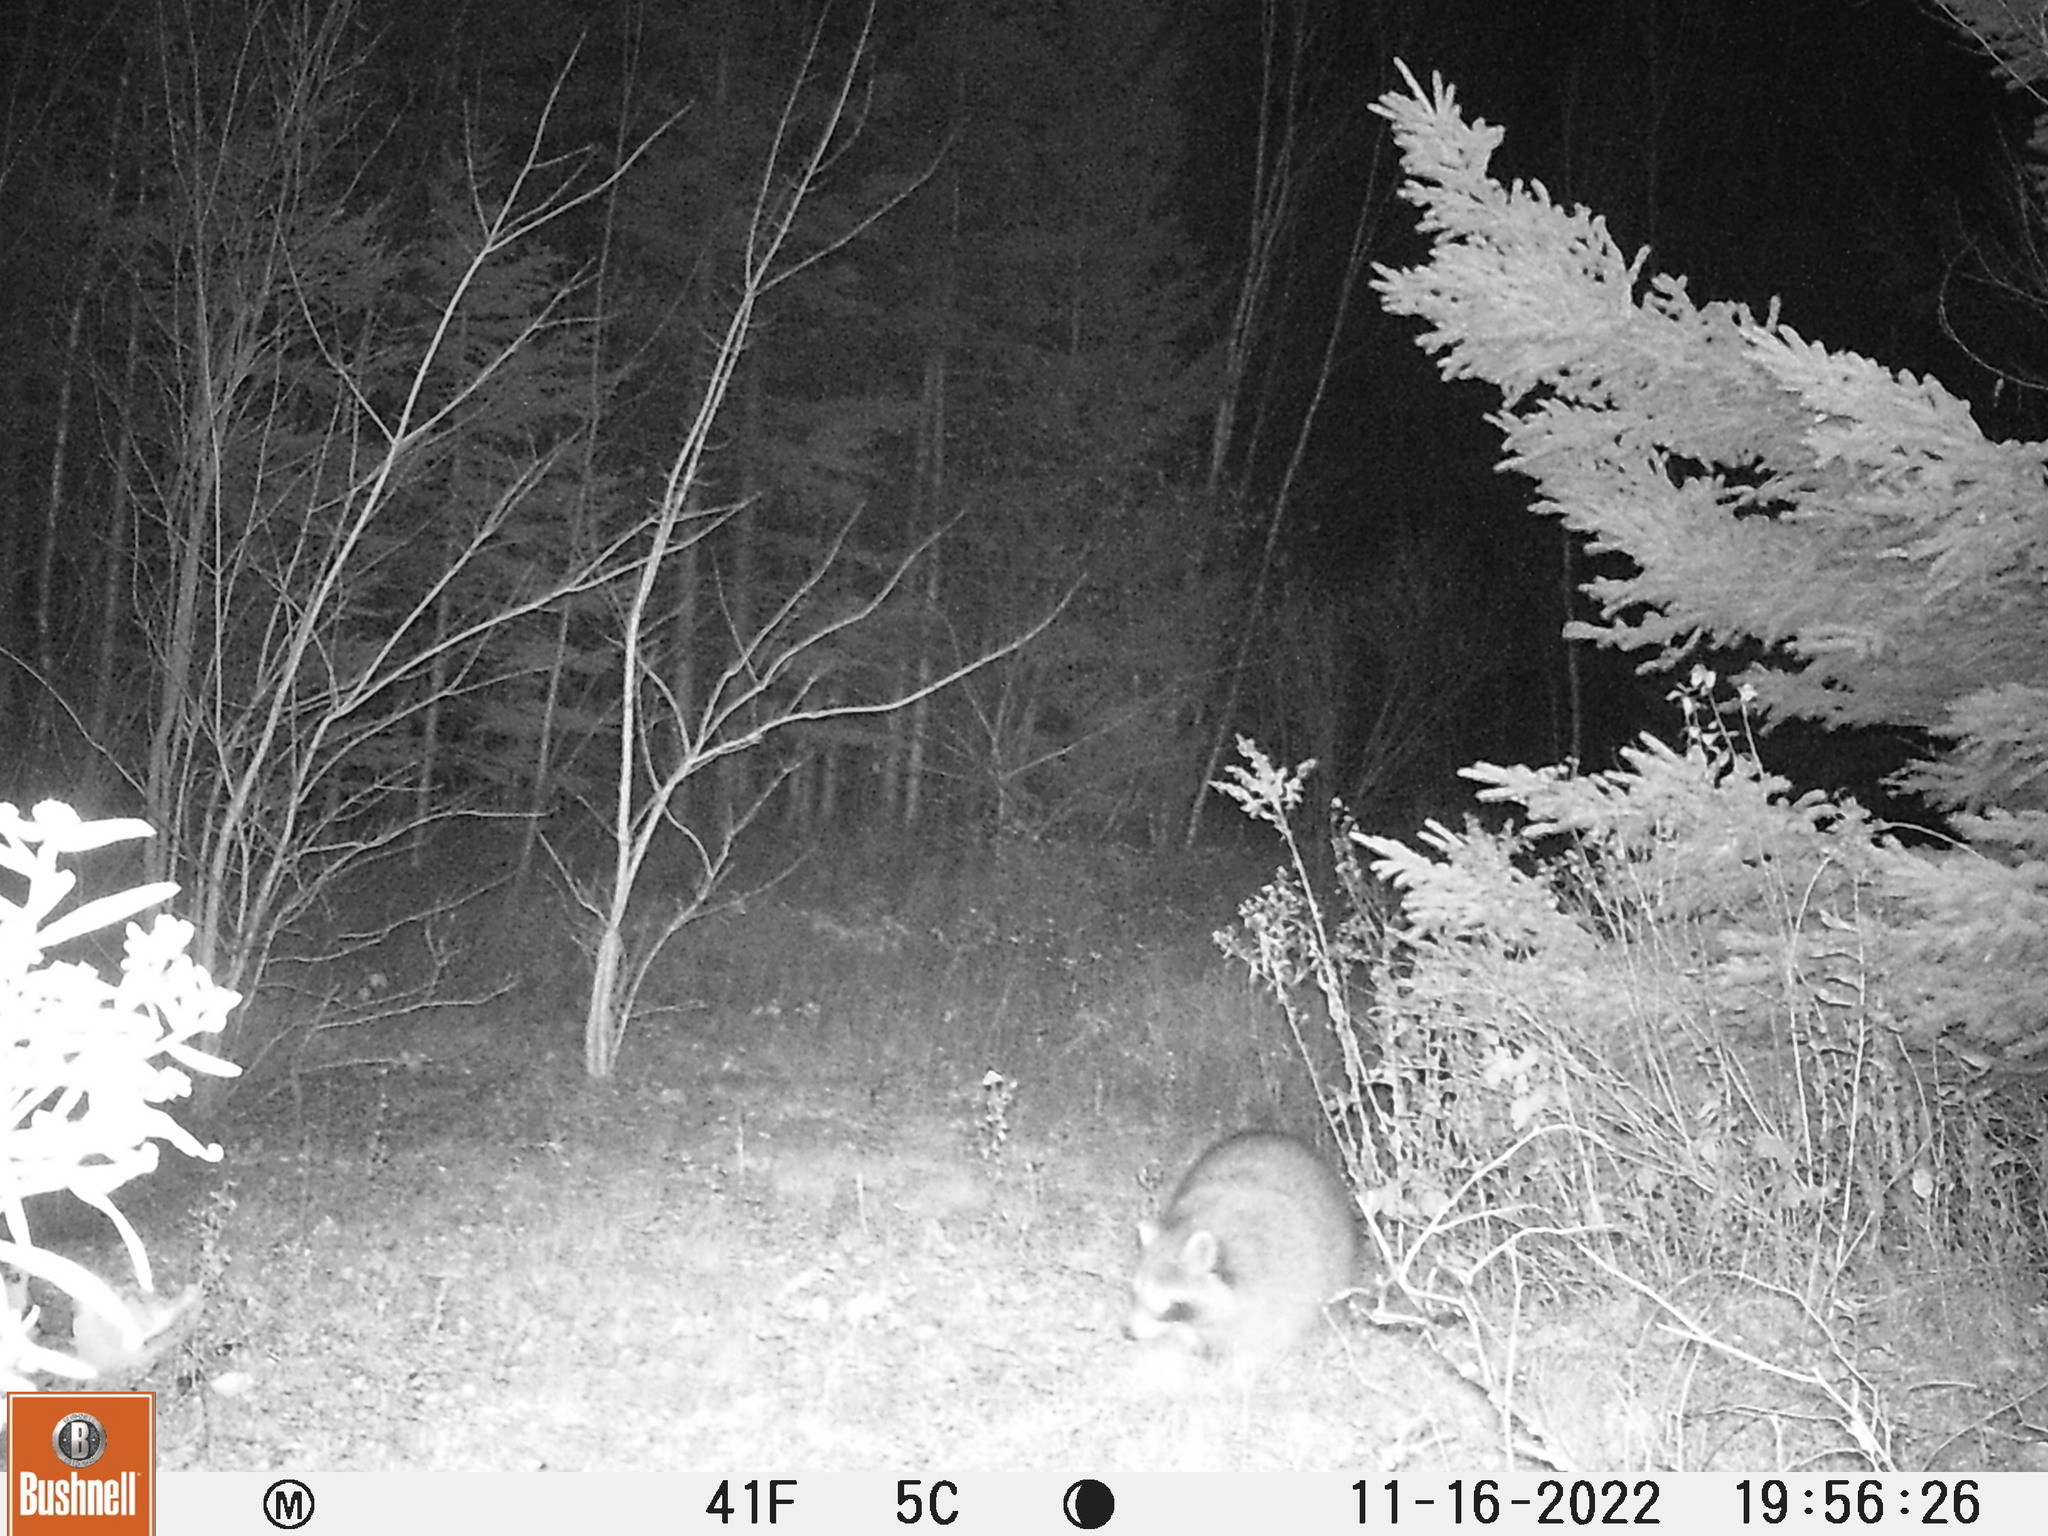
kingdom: Animalia
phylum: Chordata
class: Mammalia
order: Carnivora
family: Procyonidae
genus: Procyon
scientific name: Procyon lotor
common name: Raccoon
